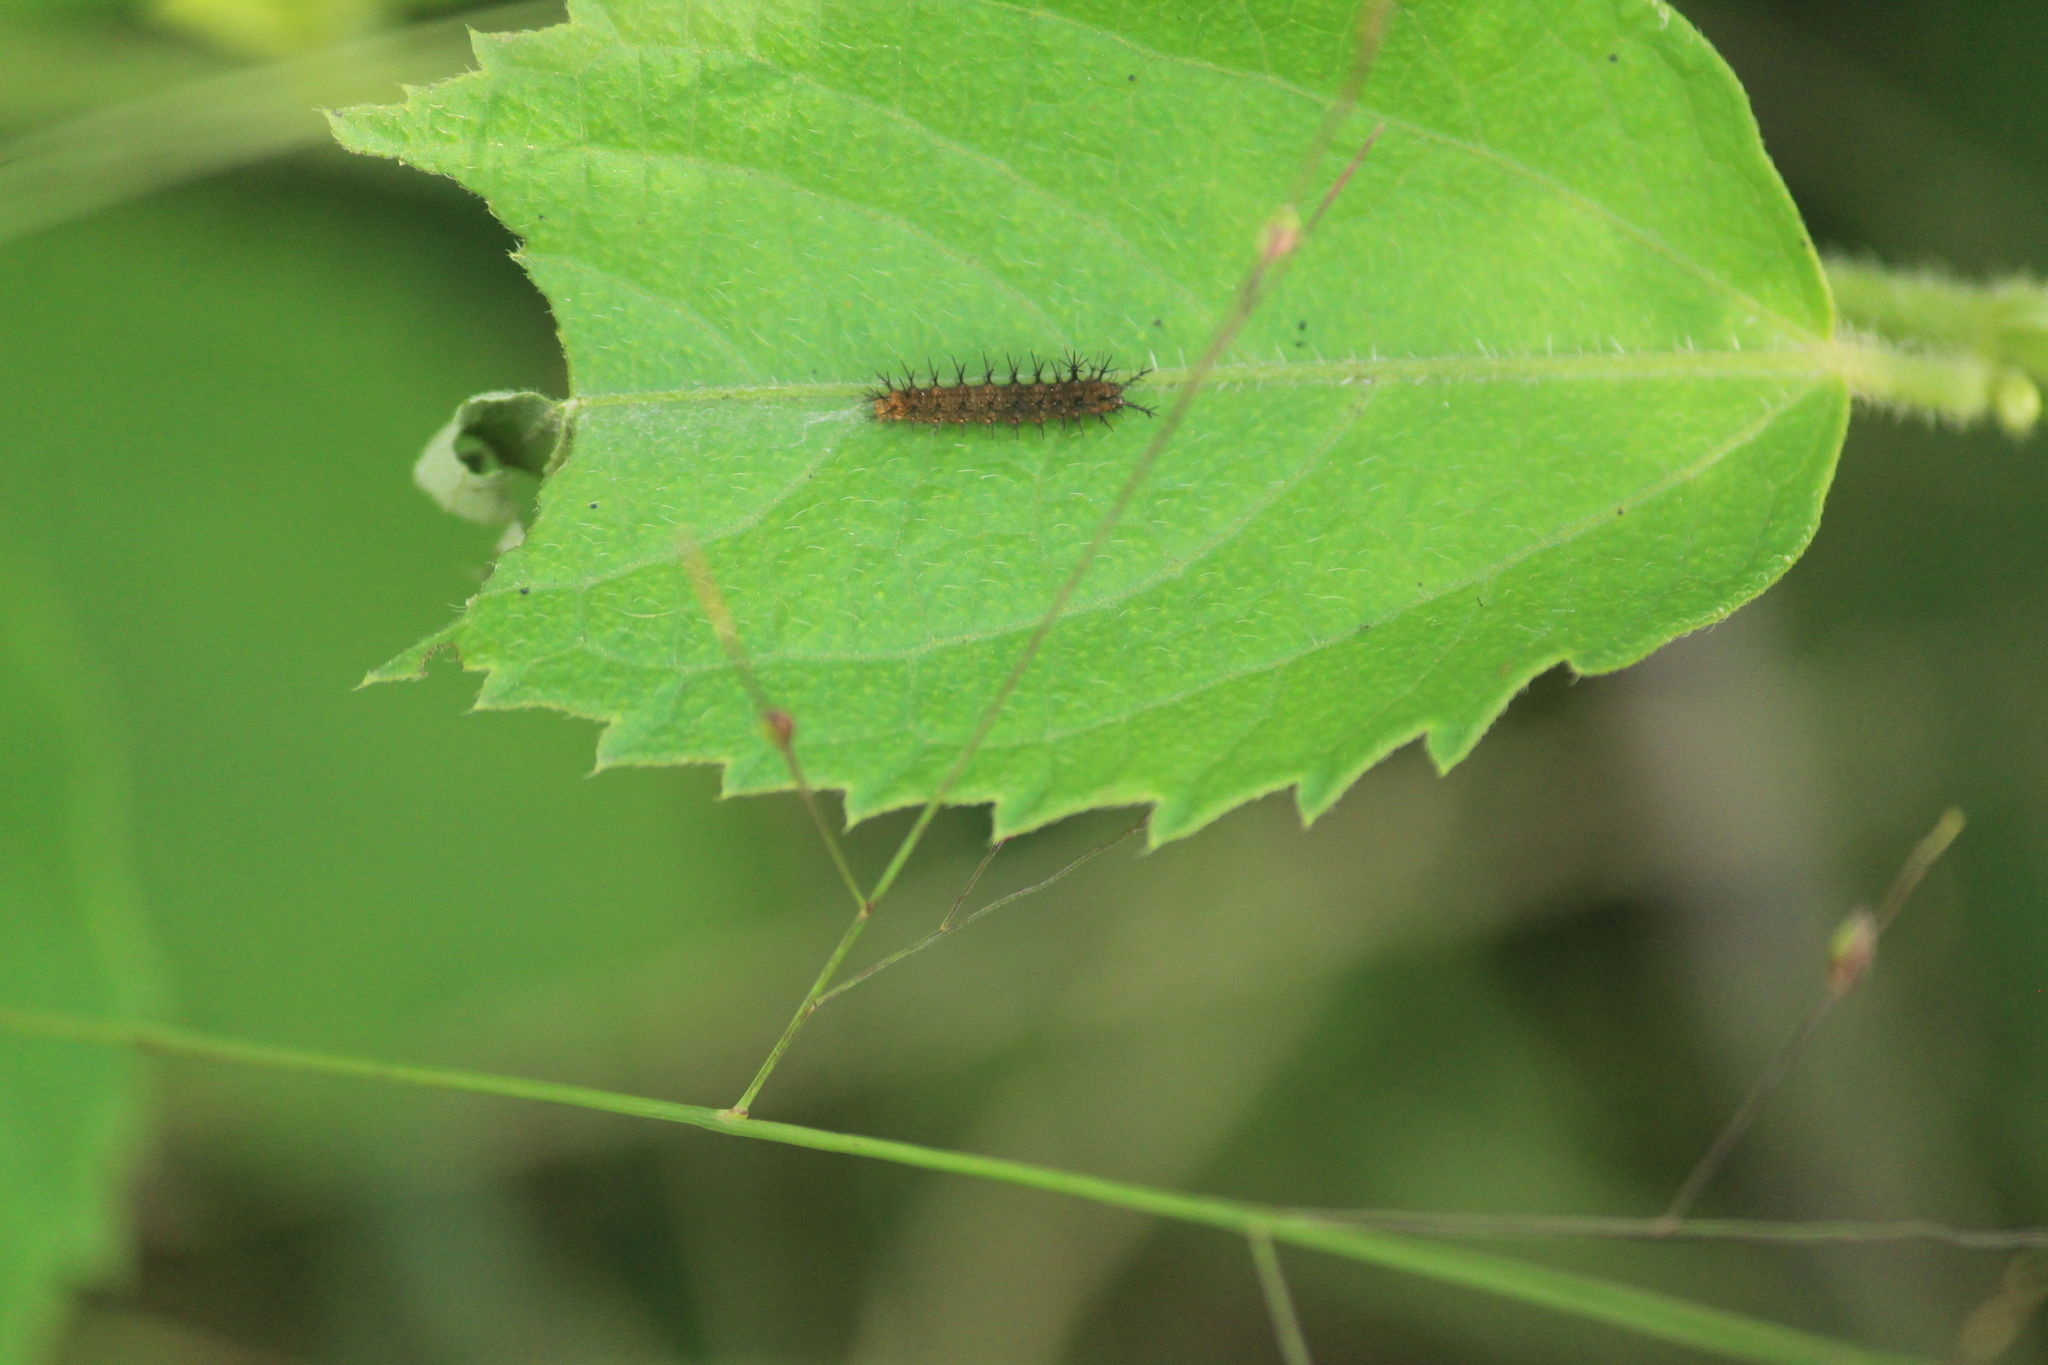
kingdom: Animalia
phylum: Arthropoda
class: Insecta
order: Lepidoptera
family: Nymphalidae
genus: Ariadne
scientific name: Ariadne ariadne
